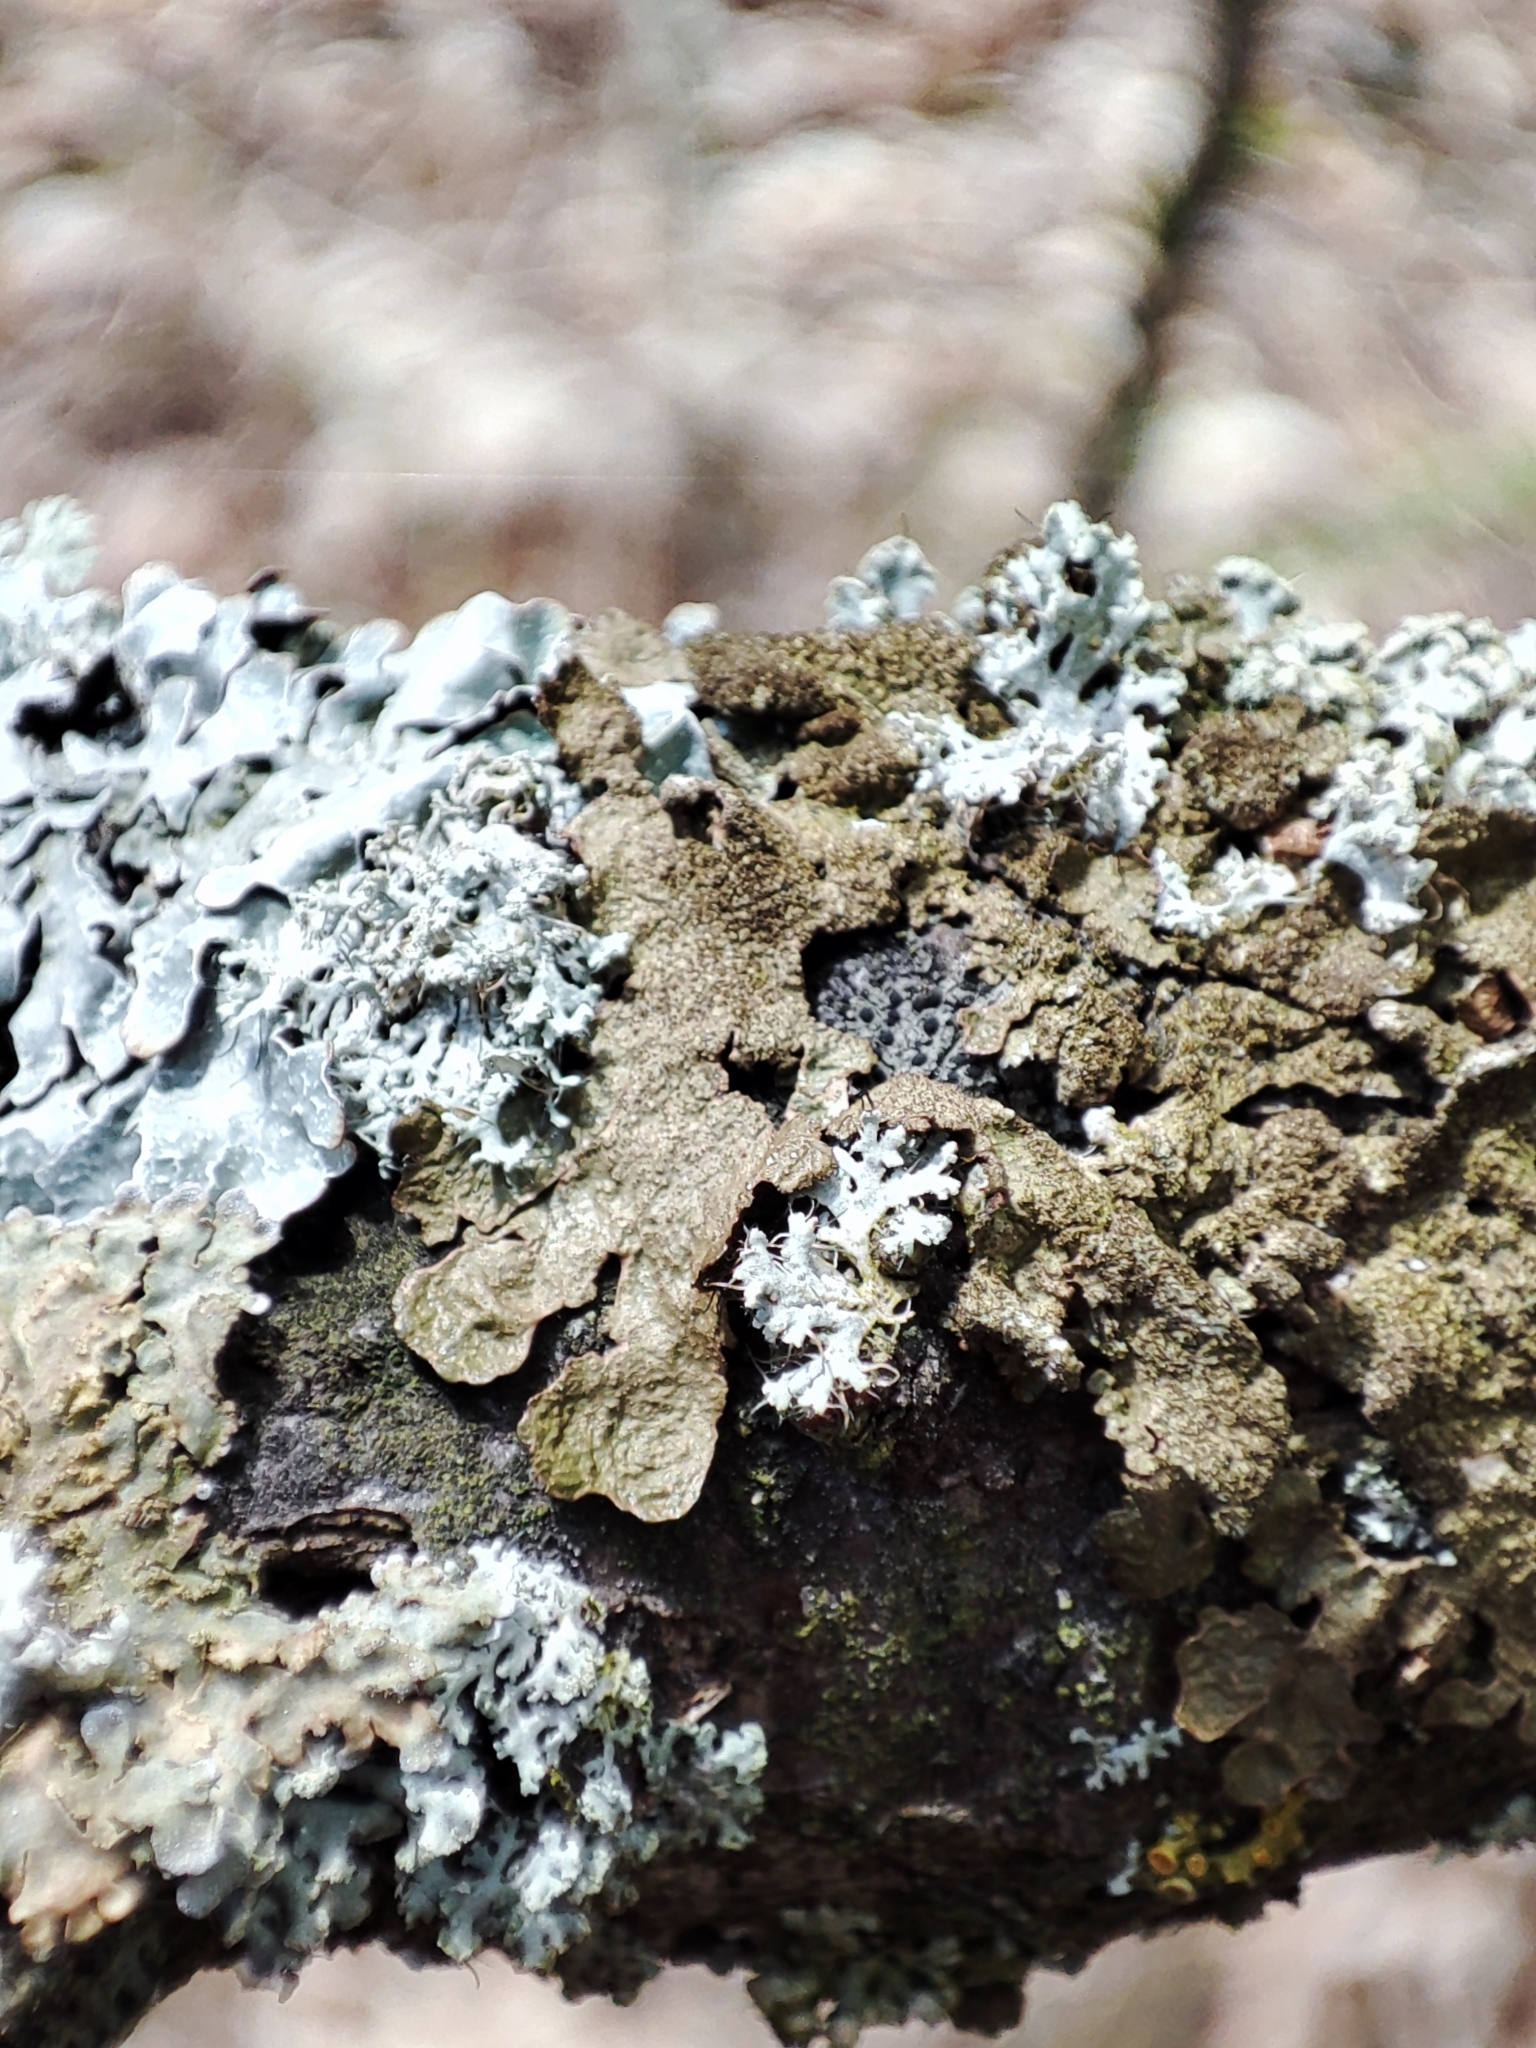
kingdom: Fungi
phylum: Ascomycota
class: Lecanoromycetes
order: Lecanorales
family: Parmeliaceae
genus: Melanohalea
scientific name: Melanohalea exasperatula
